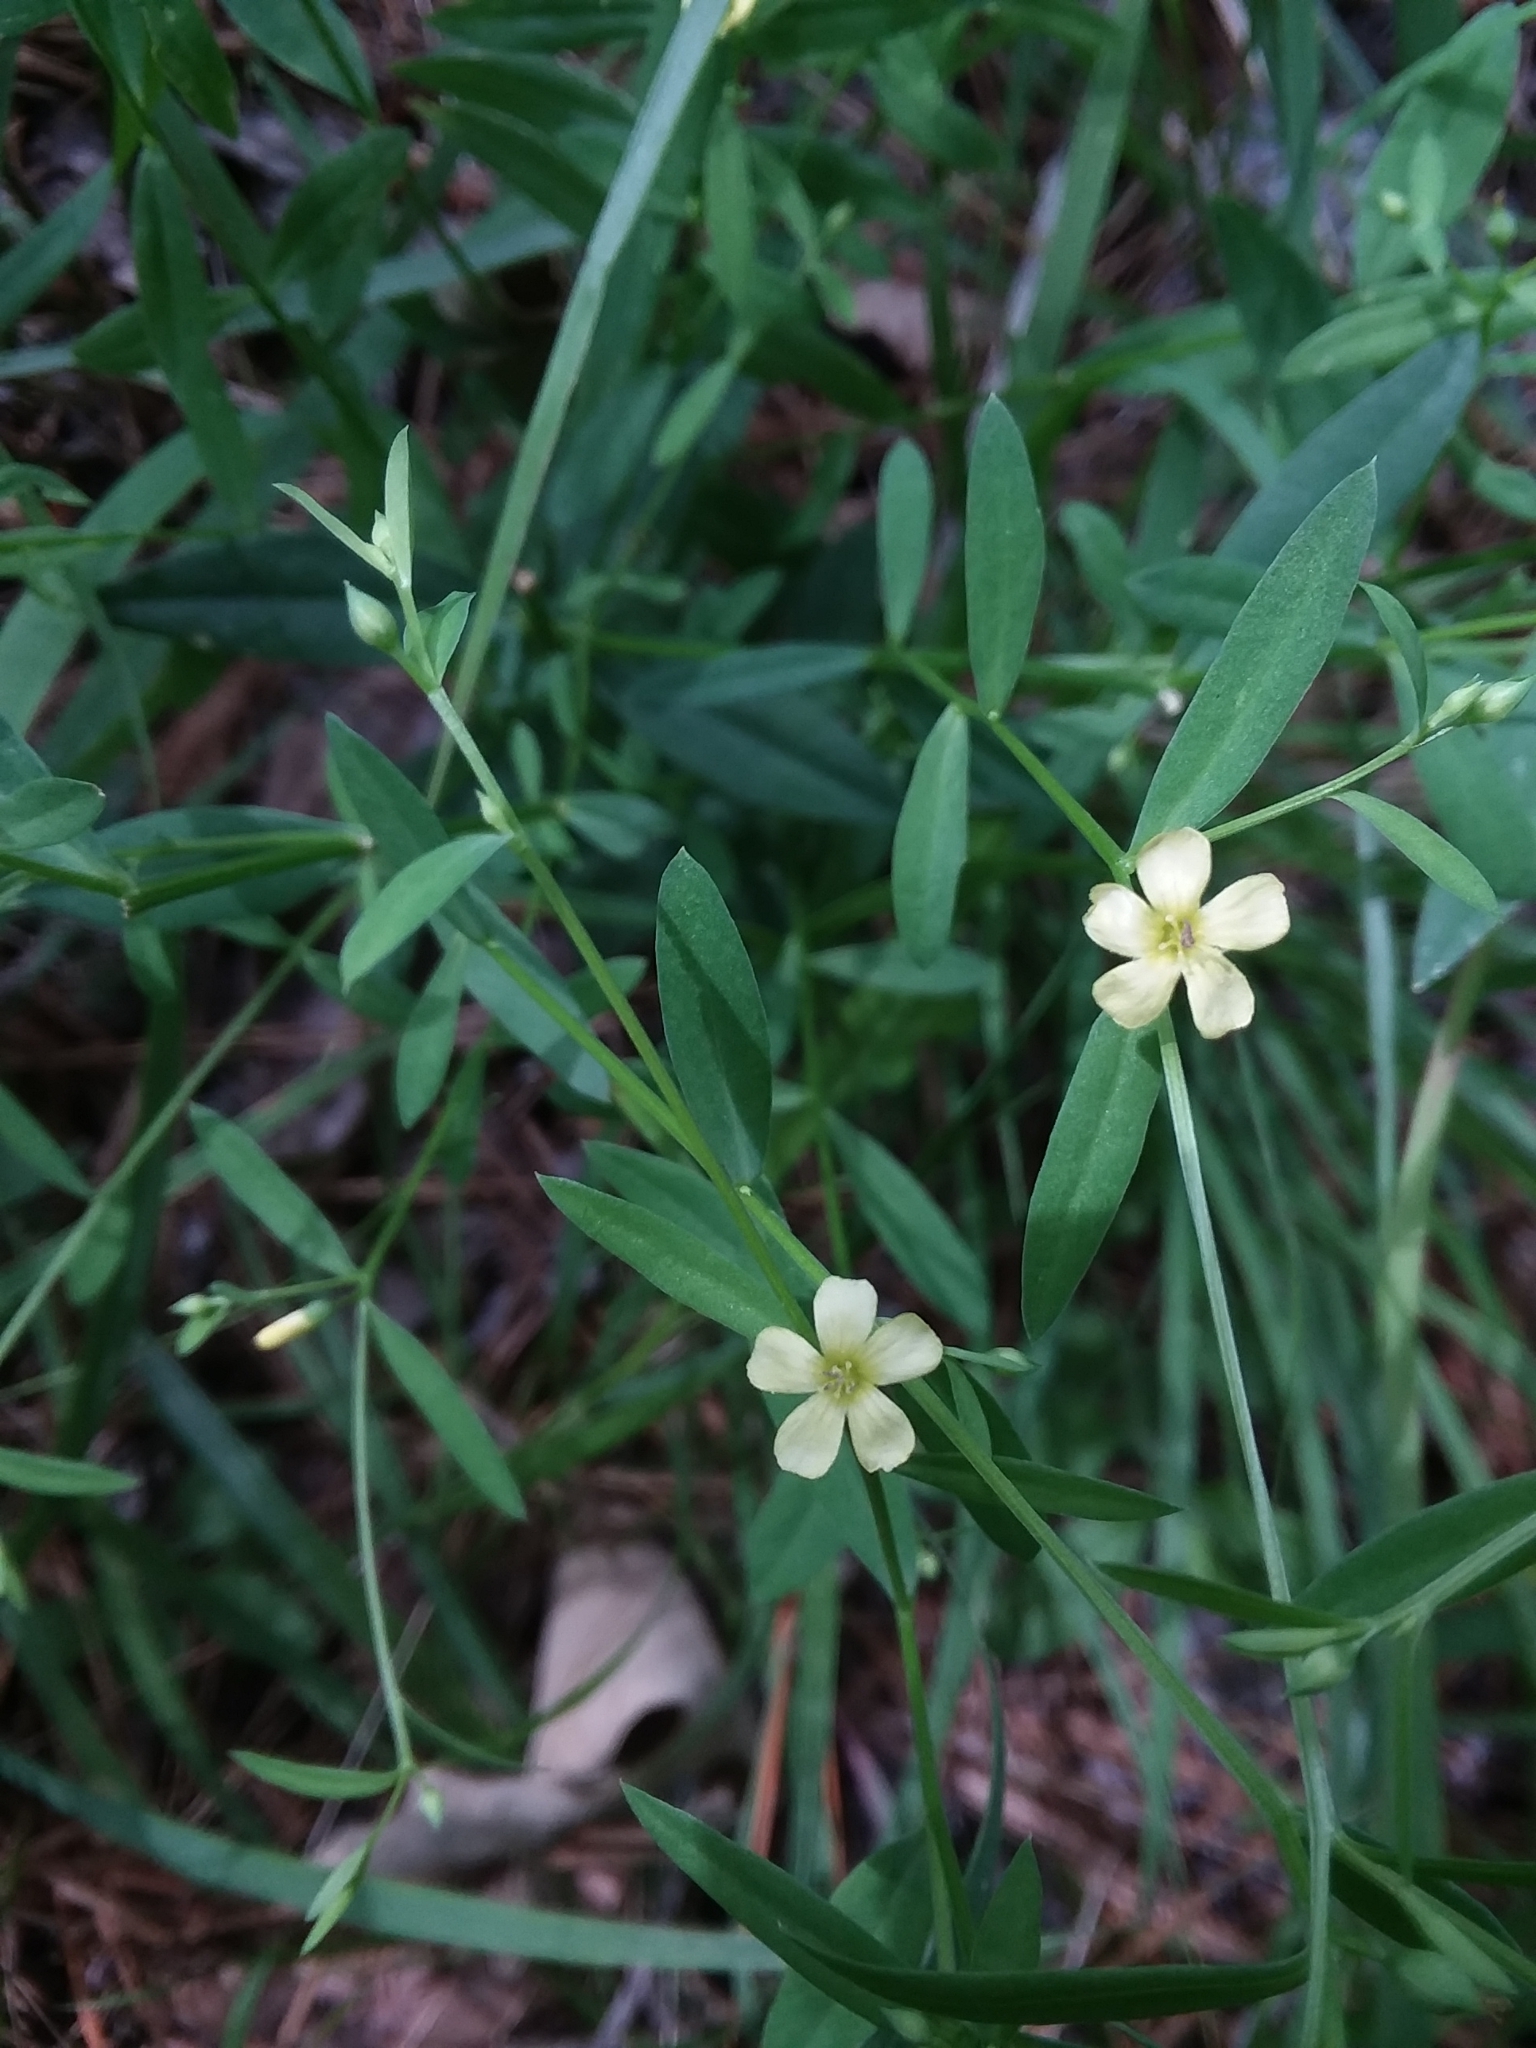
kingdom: Plantae
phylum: Tracheophyta
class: Magnoliopsida
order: Malpighiales
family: Linaceae
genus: Linum
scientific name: Linum striatum
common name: Ridged yellow flax
